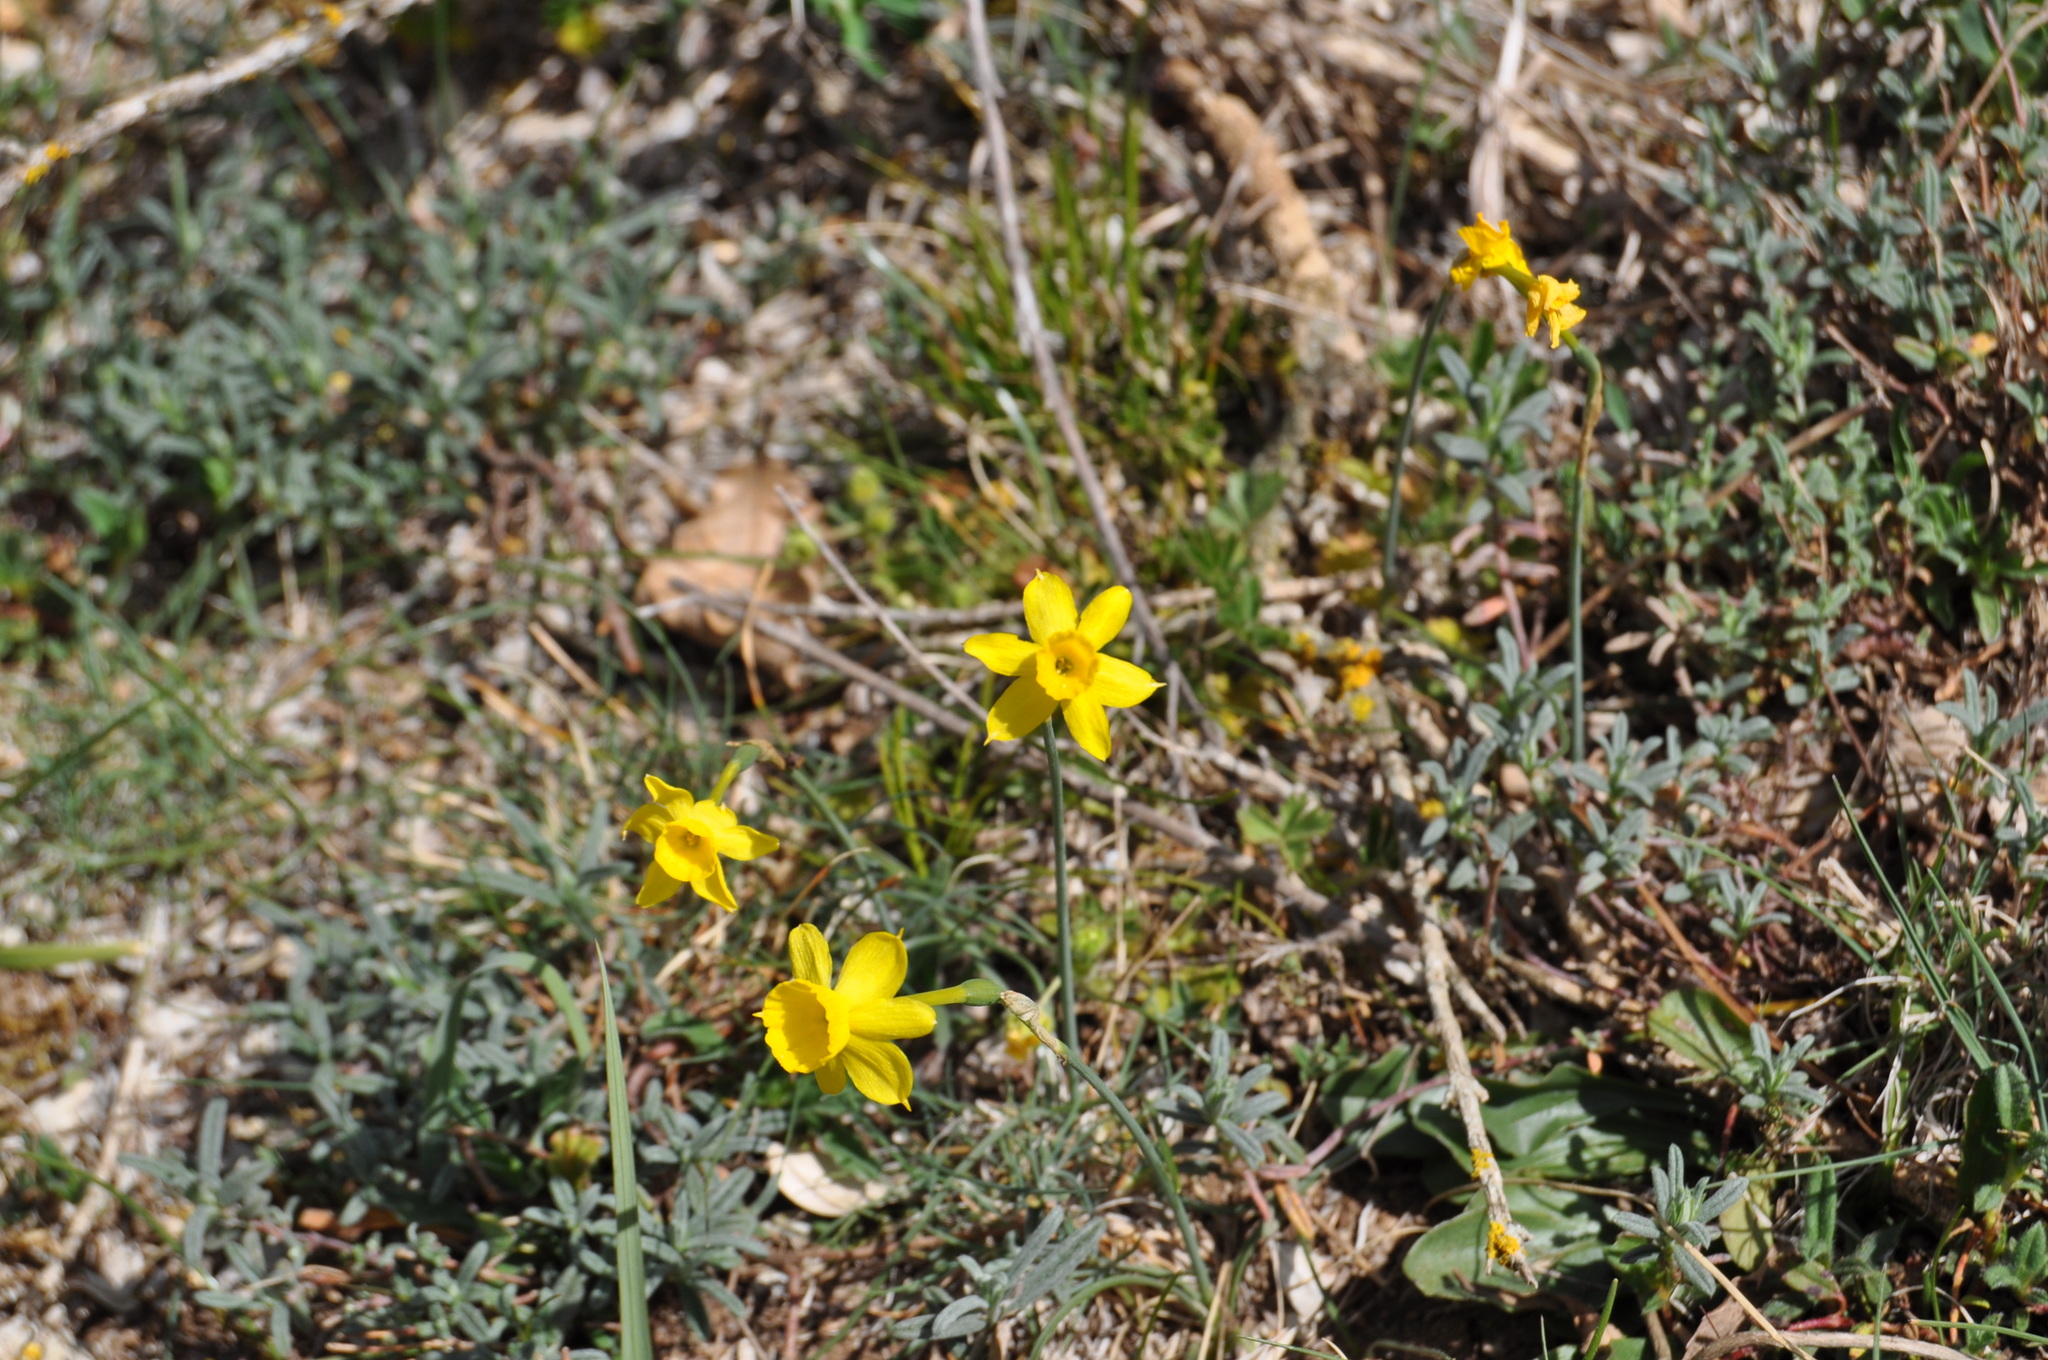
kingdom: Plantae
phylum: Tracheophyta
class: Liliopsida
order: Asparagales
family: Amaryllidaceae
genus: Narcissus
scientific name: Narcissus assoanus
